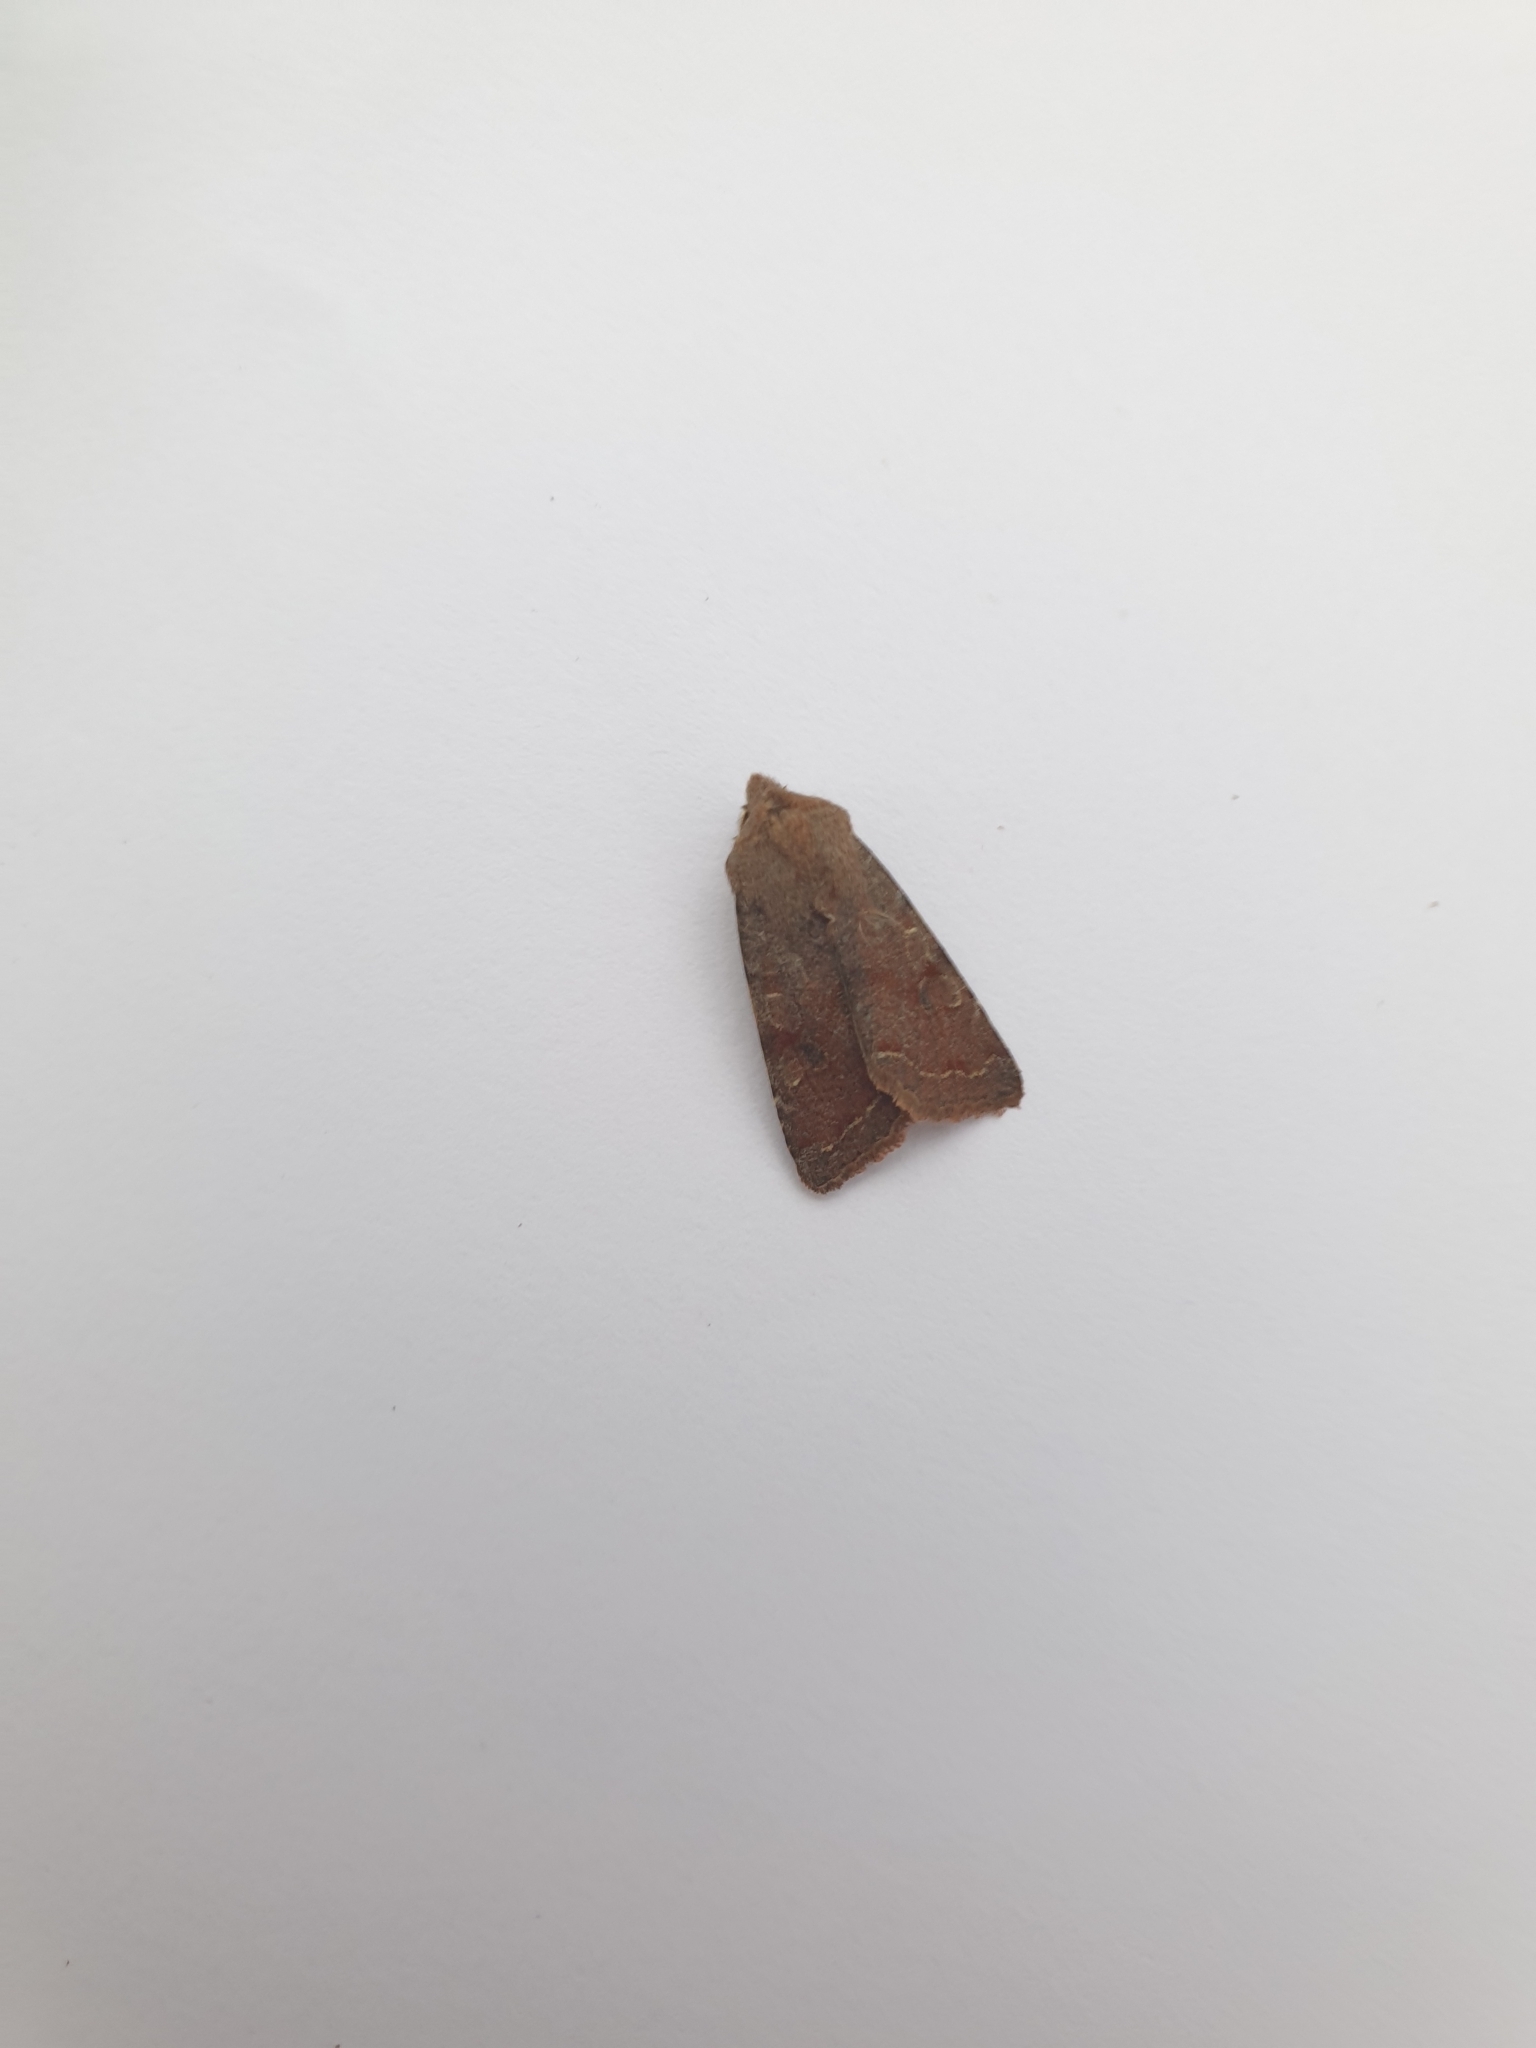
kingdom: Animalia
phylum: Arthropoda
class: Insecta
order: Lepidoptera
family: Noctuidae
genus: Orthosia
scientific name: Orthosia incerta
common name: Clouded drab
